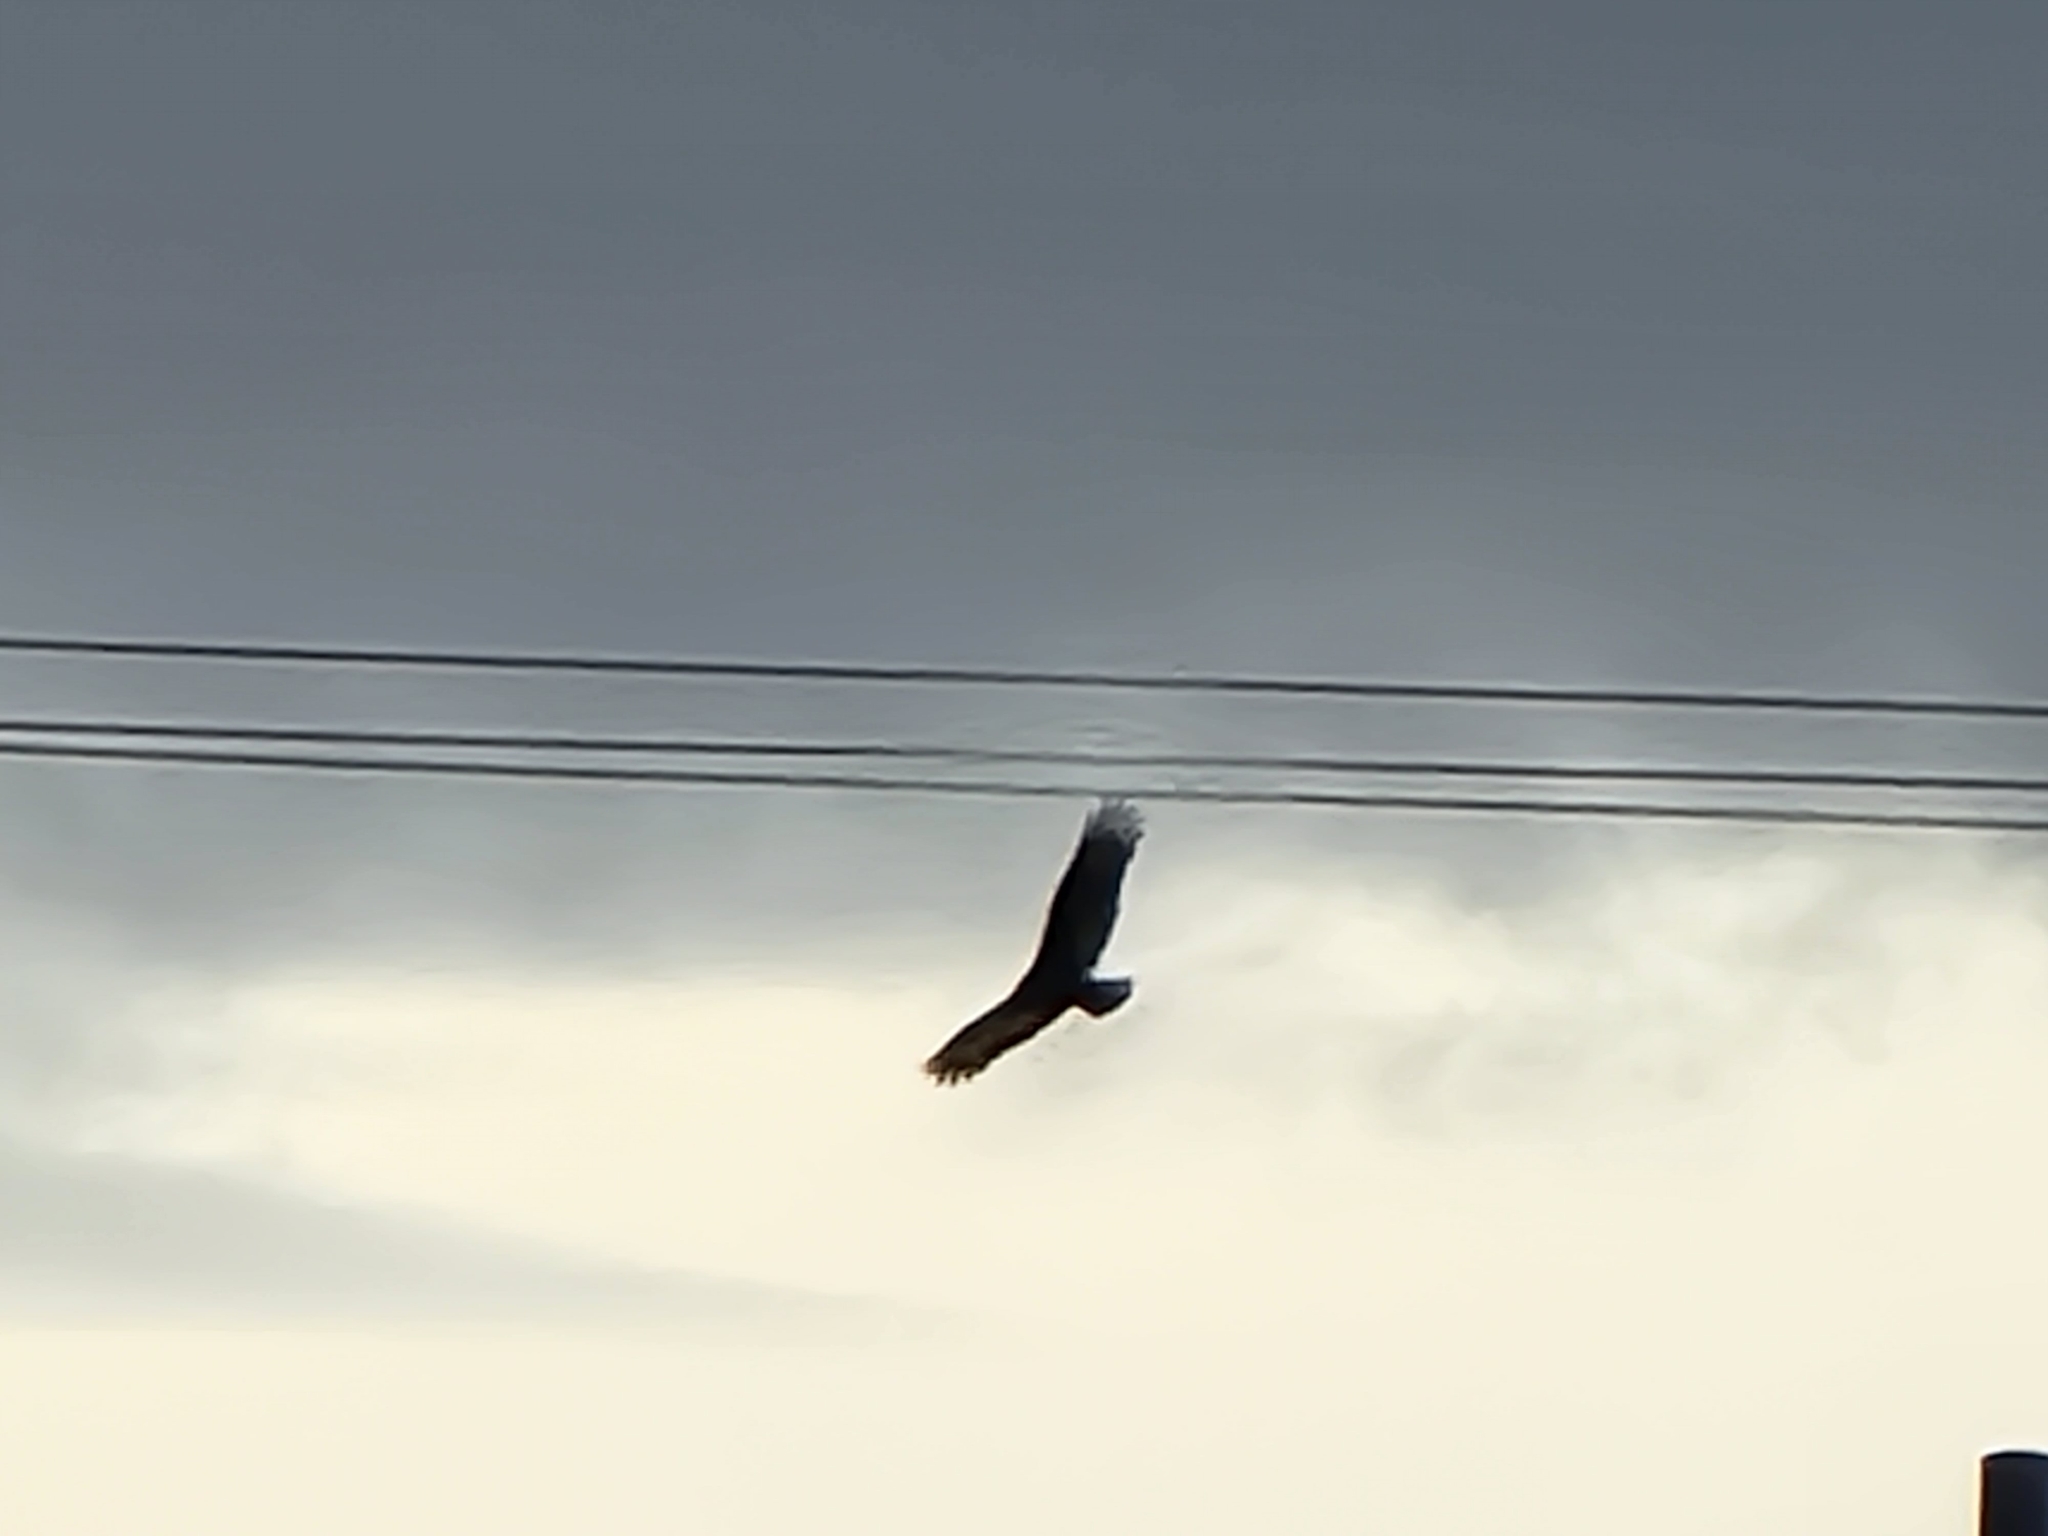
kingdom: Animalia
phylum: Chordata
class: Aves
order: Accipitriformes
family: Cathartidae
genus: Cathartes
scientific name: Cathartes aura
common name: Turkey vulture
